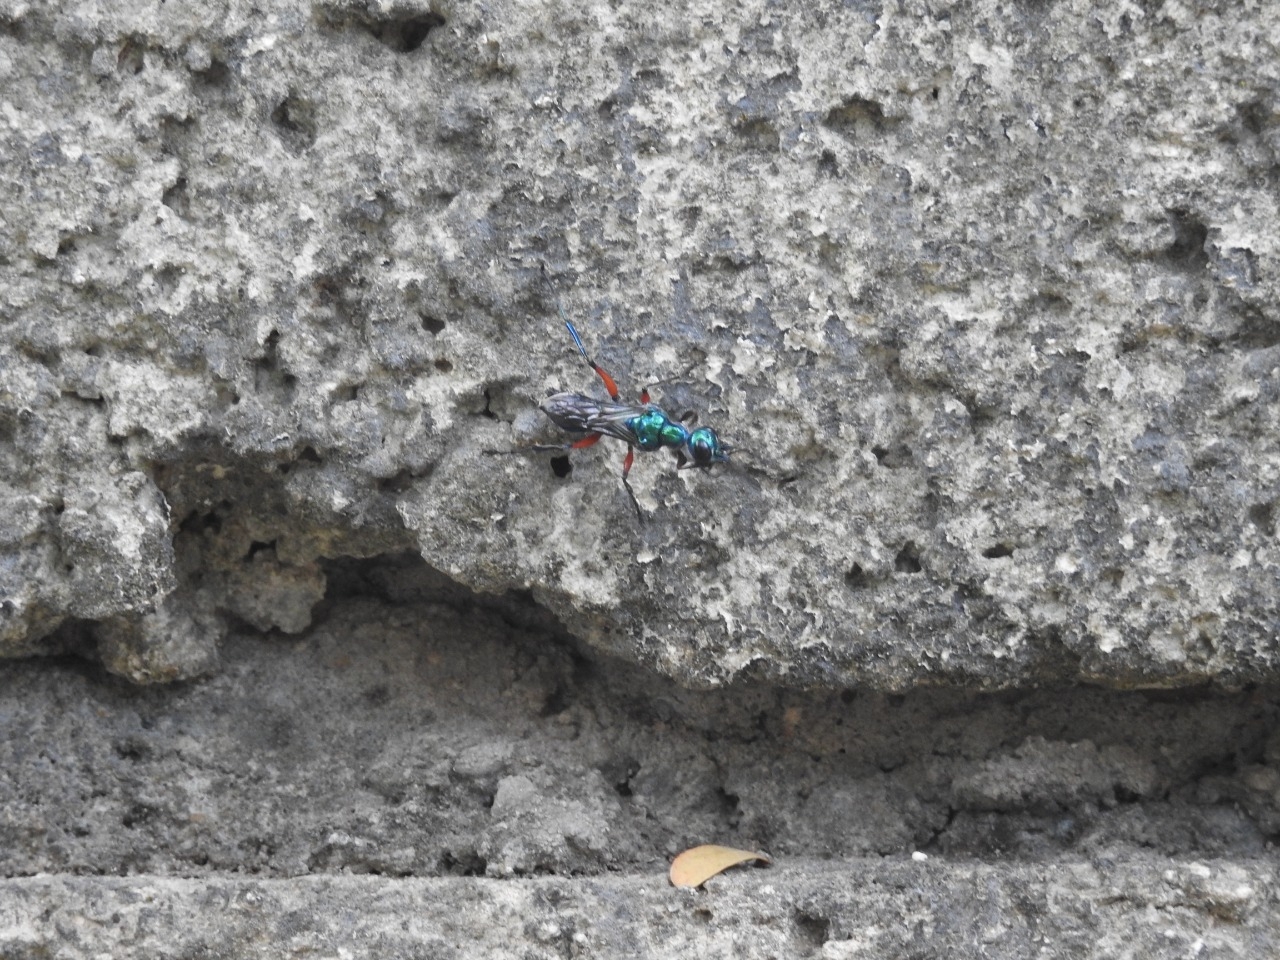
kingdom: Animalia
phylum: Arthropoda
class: Insecta
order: Hymenoptera
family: Ampulicidae
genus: Ampulex
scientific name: Ampulex compressa
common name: Emerald cockroach wasp
